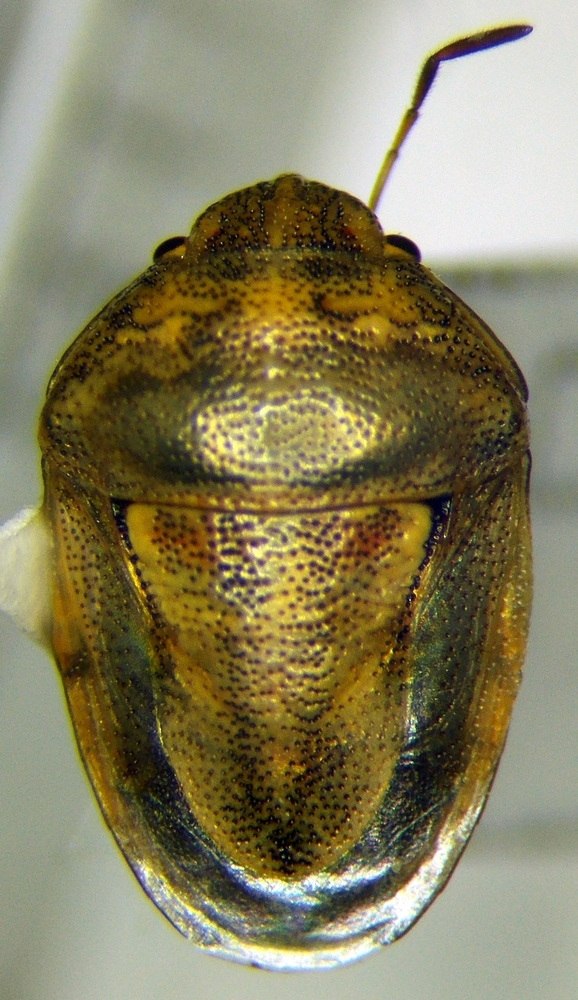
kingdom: Animalia
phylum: Arthropoda
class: Insecta
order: Hemiptera
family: Pentatomidae
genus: Neottiglossa
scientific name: Neottiglossa leporina
